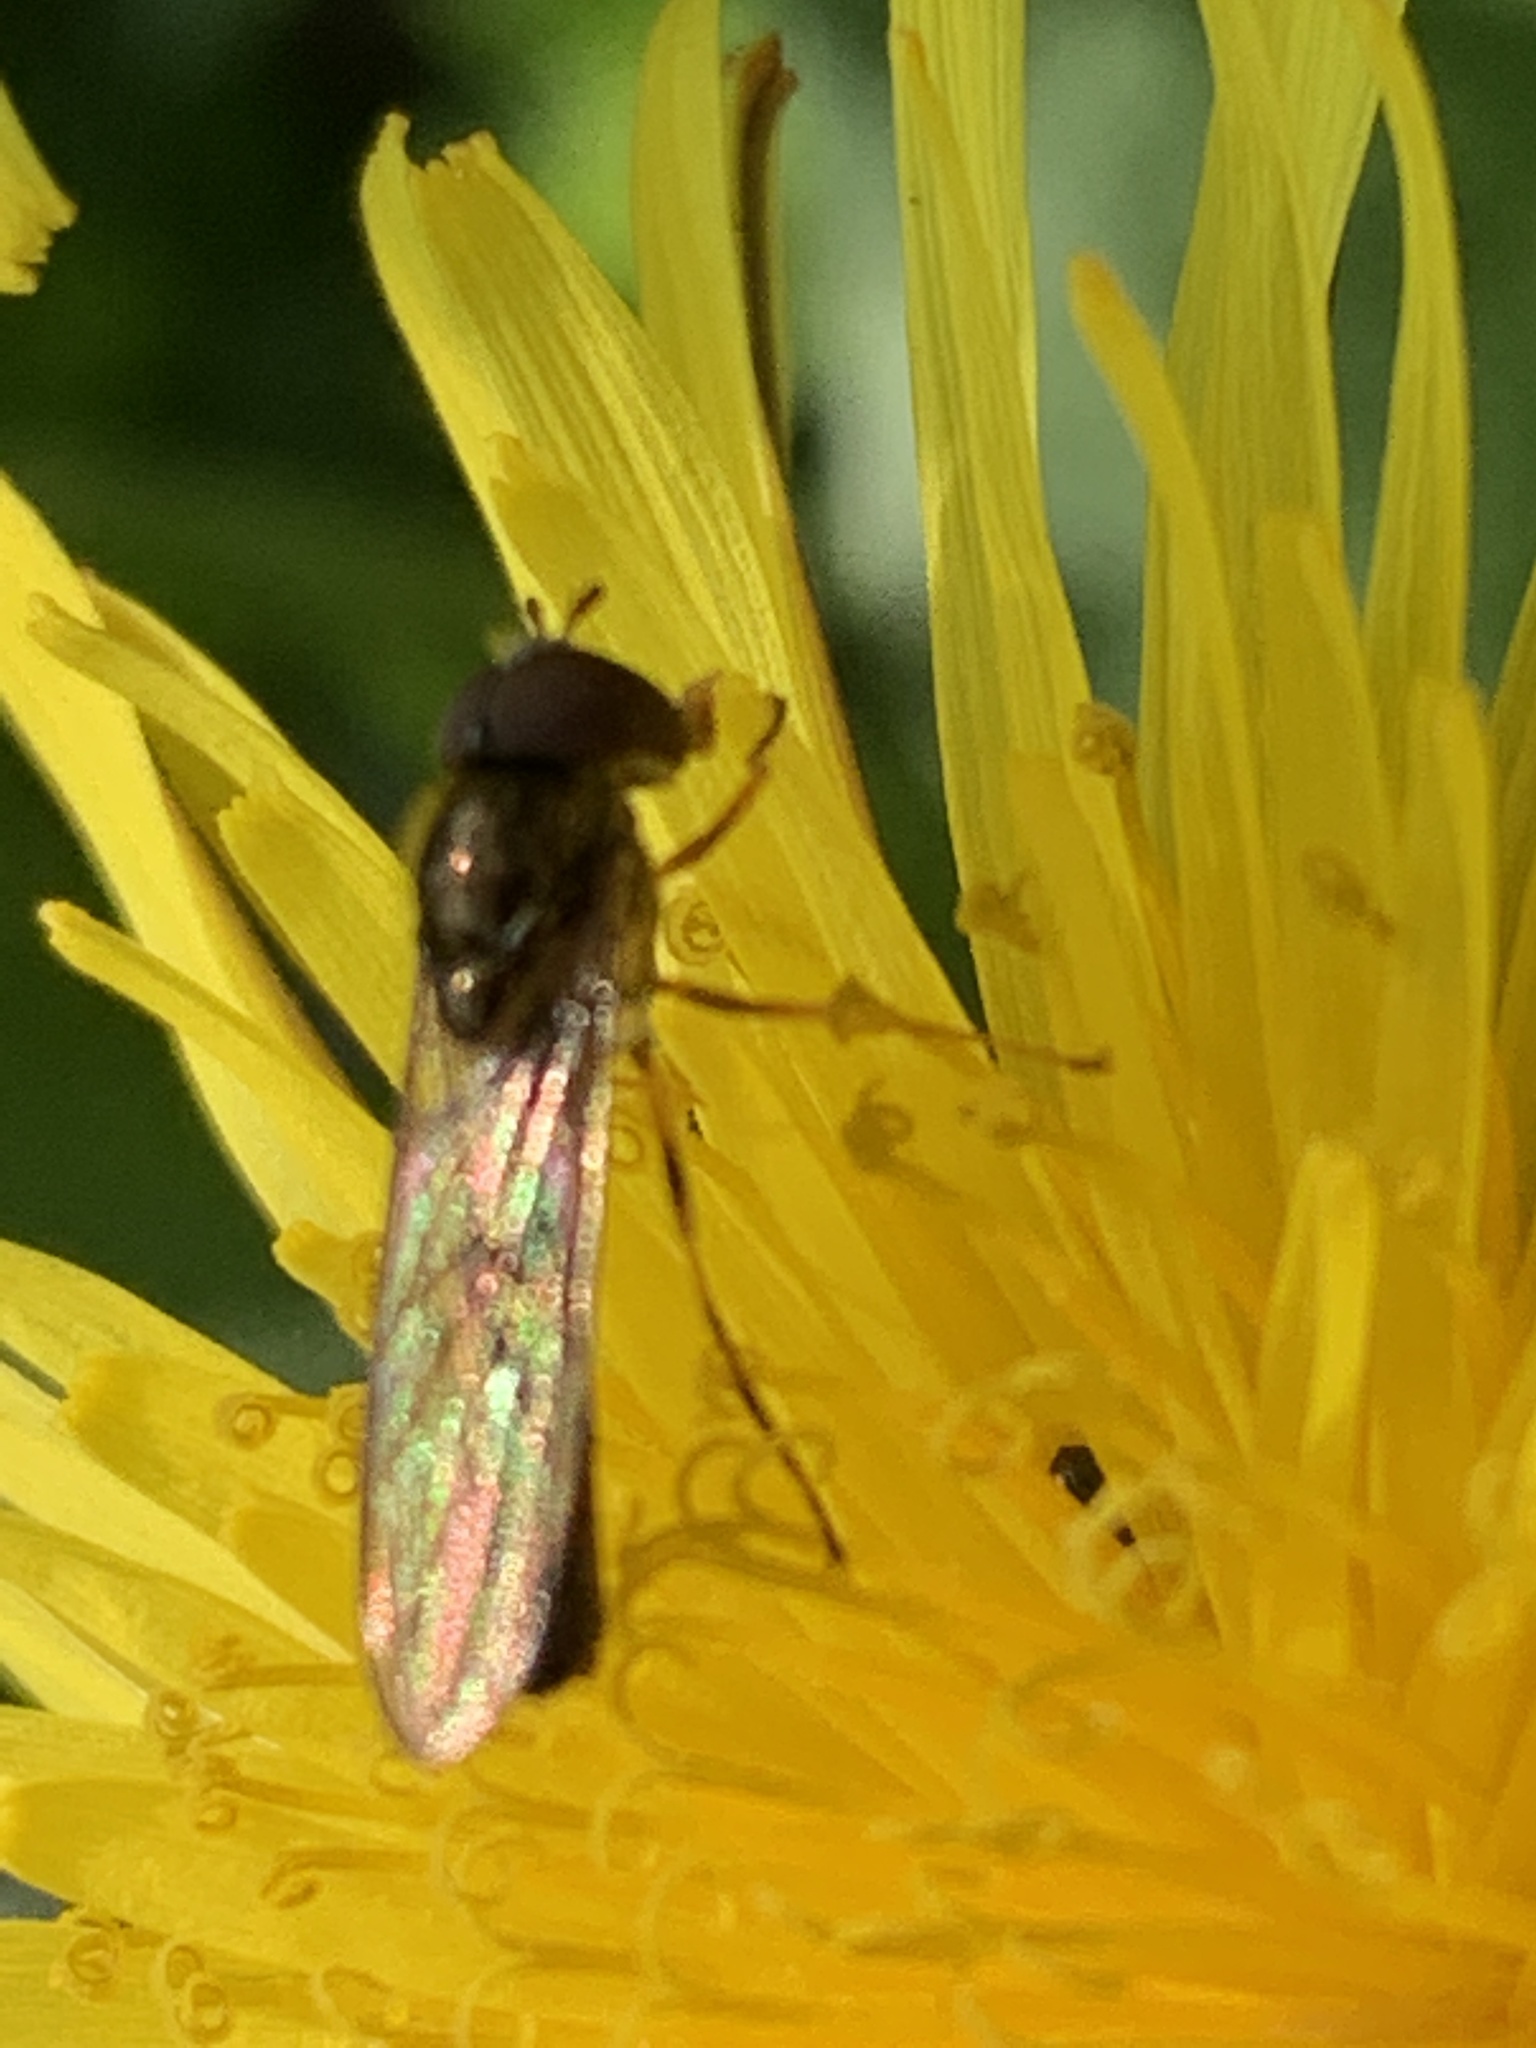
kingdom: Animalia
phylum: Arthropoda
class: Insecta
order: Diptera
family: Syrphidae
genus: Melanostoma
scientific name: Melanostoma scalare
